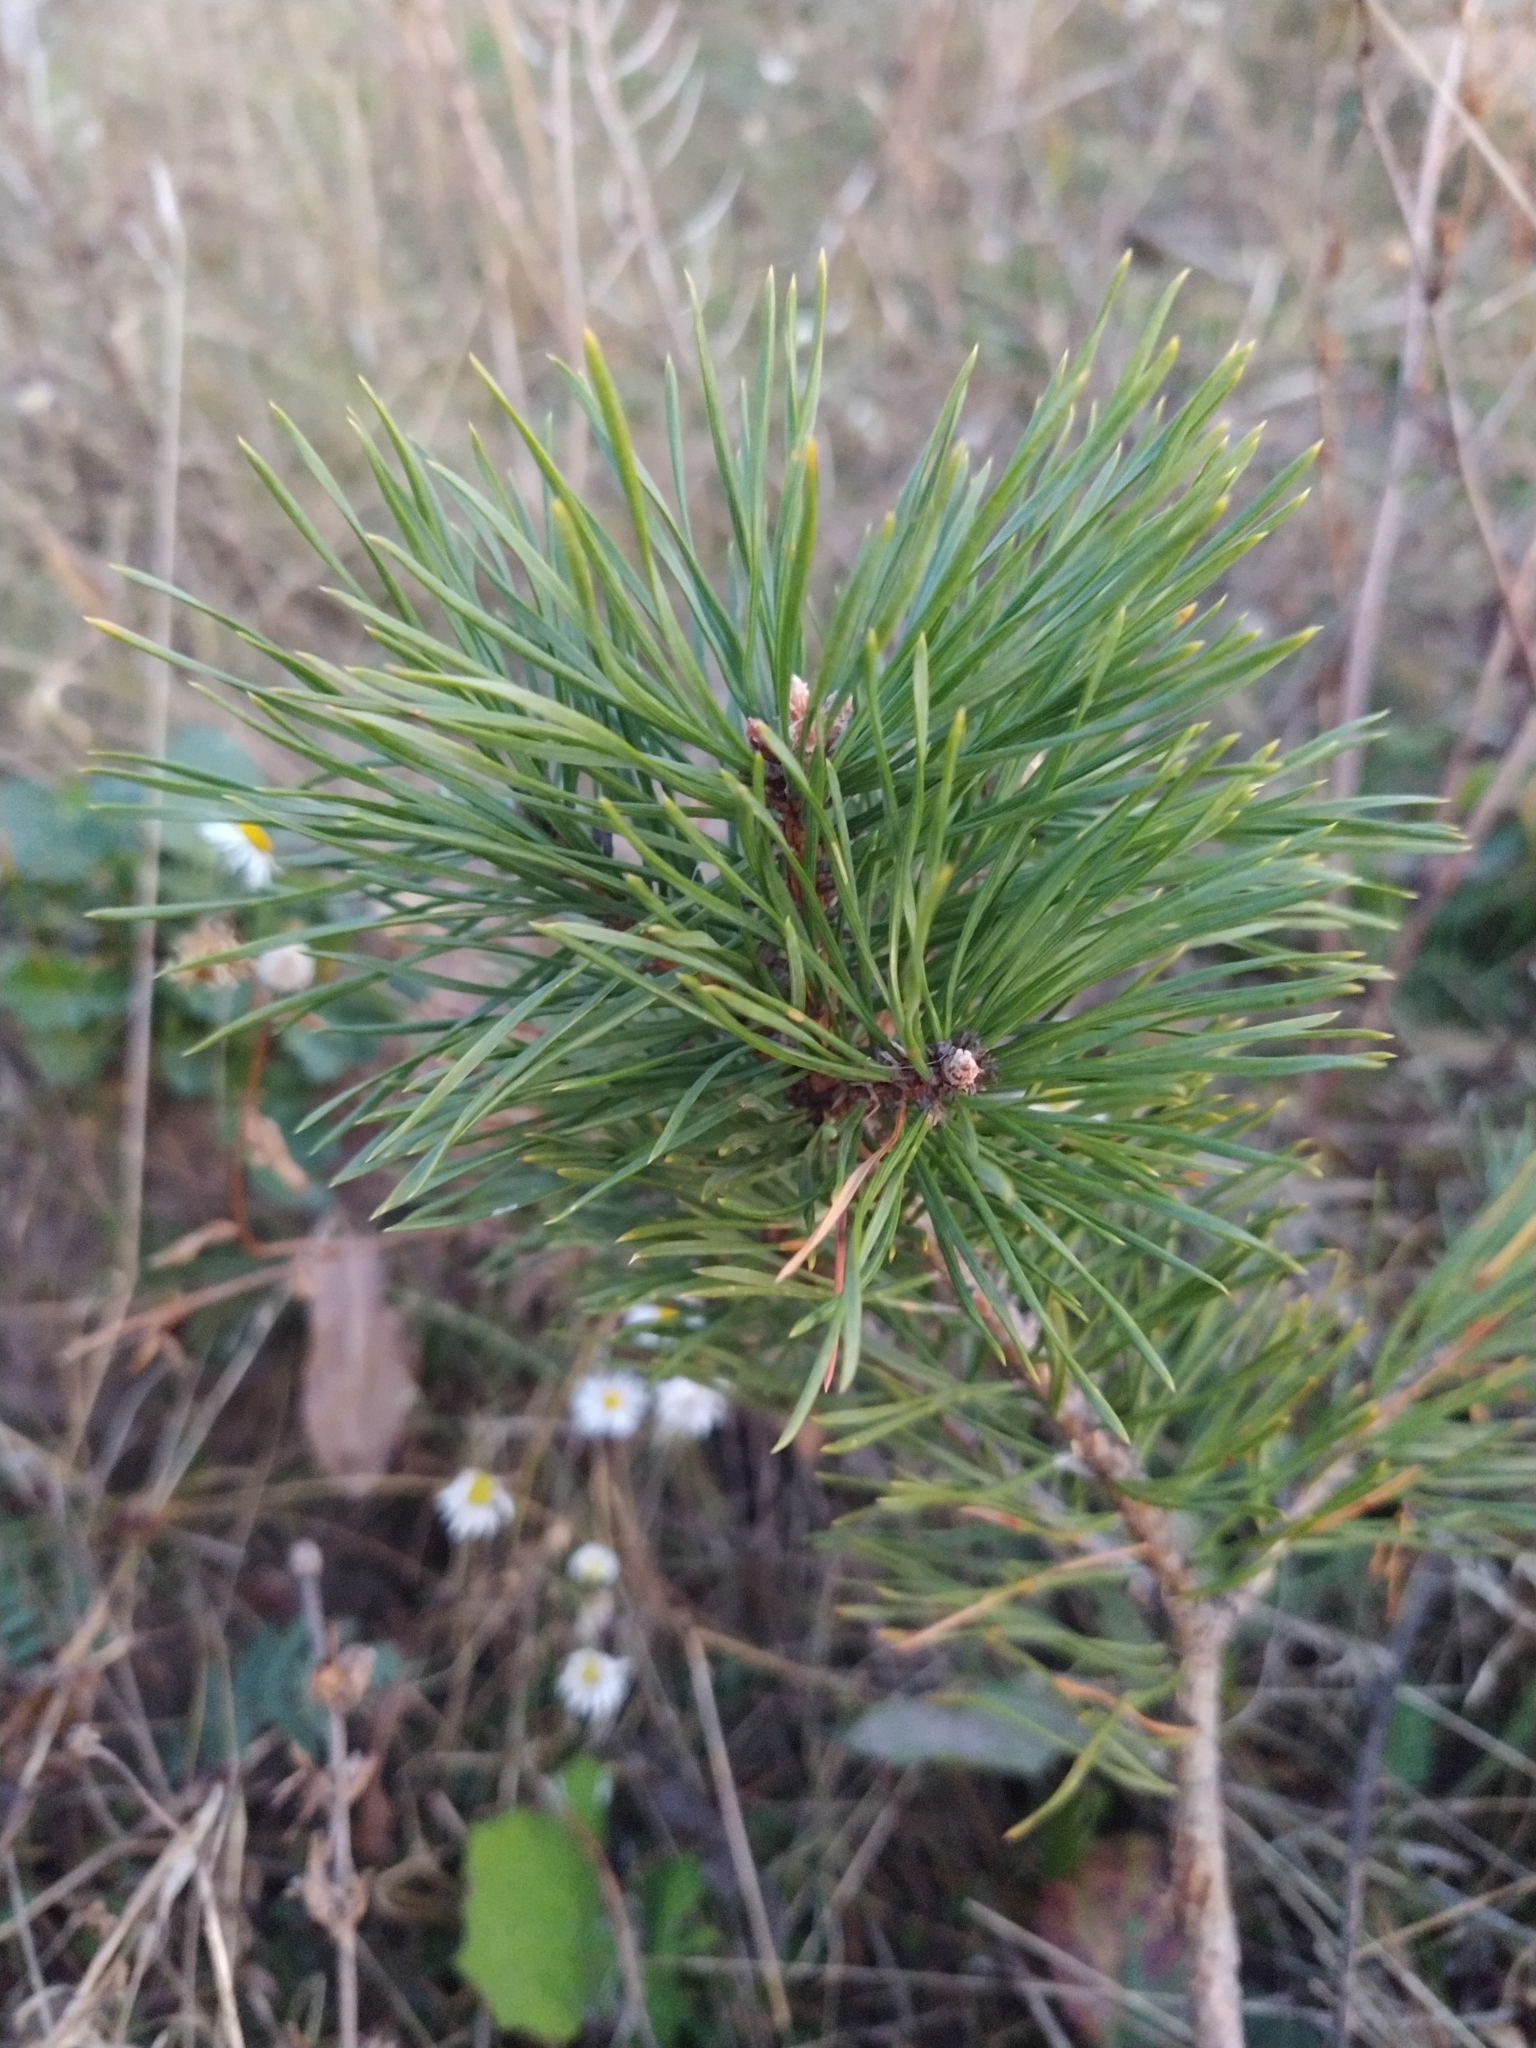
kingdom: Plantae
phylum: Tracheophyta
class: Pinopsida
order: Pinales
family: Pinaceae
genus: Pinus
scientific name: Pinus sylvestris
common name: Scots pine
